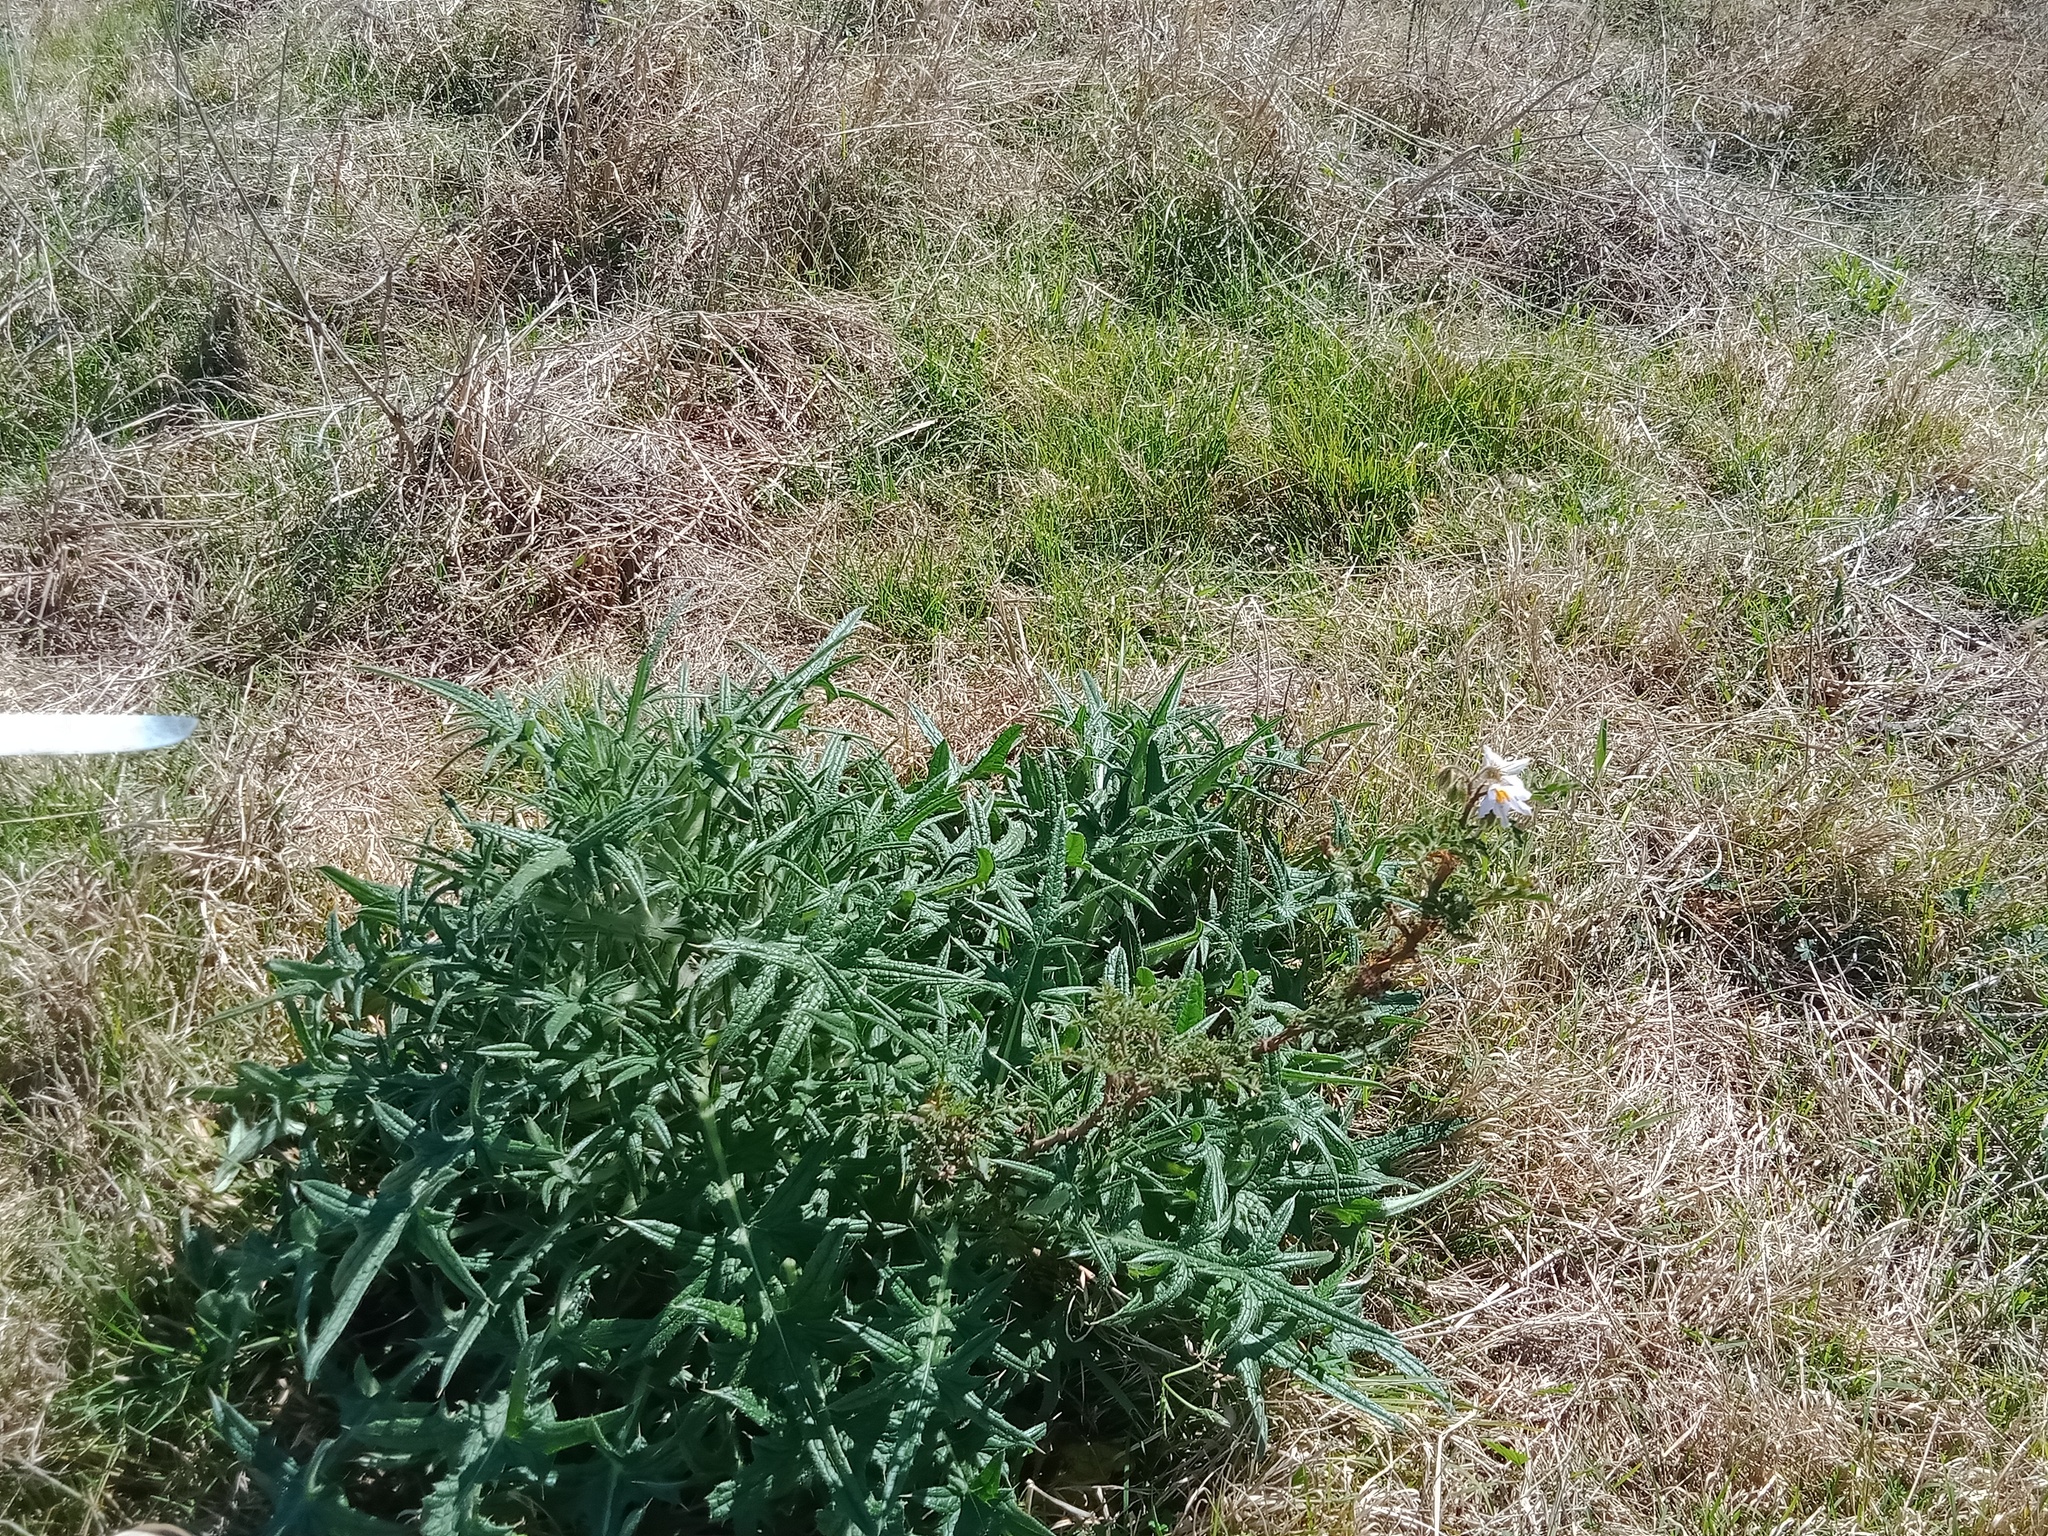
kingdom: Plantae
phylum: Tracheophyta
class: Magnoliopsida
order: Solanales
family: Solanaceae
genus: Solanum
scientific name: Solanum sisymbriifolium
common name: Red buffalo-bur
